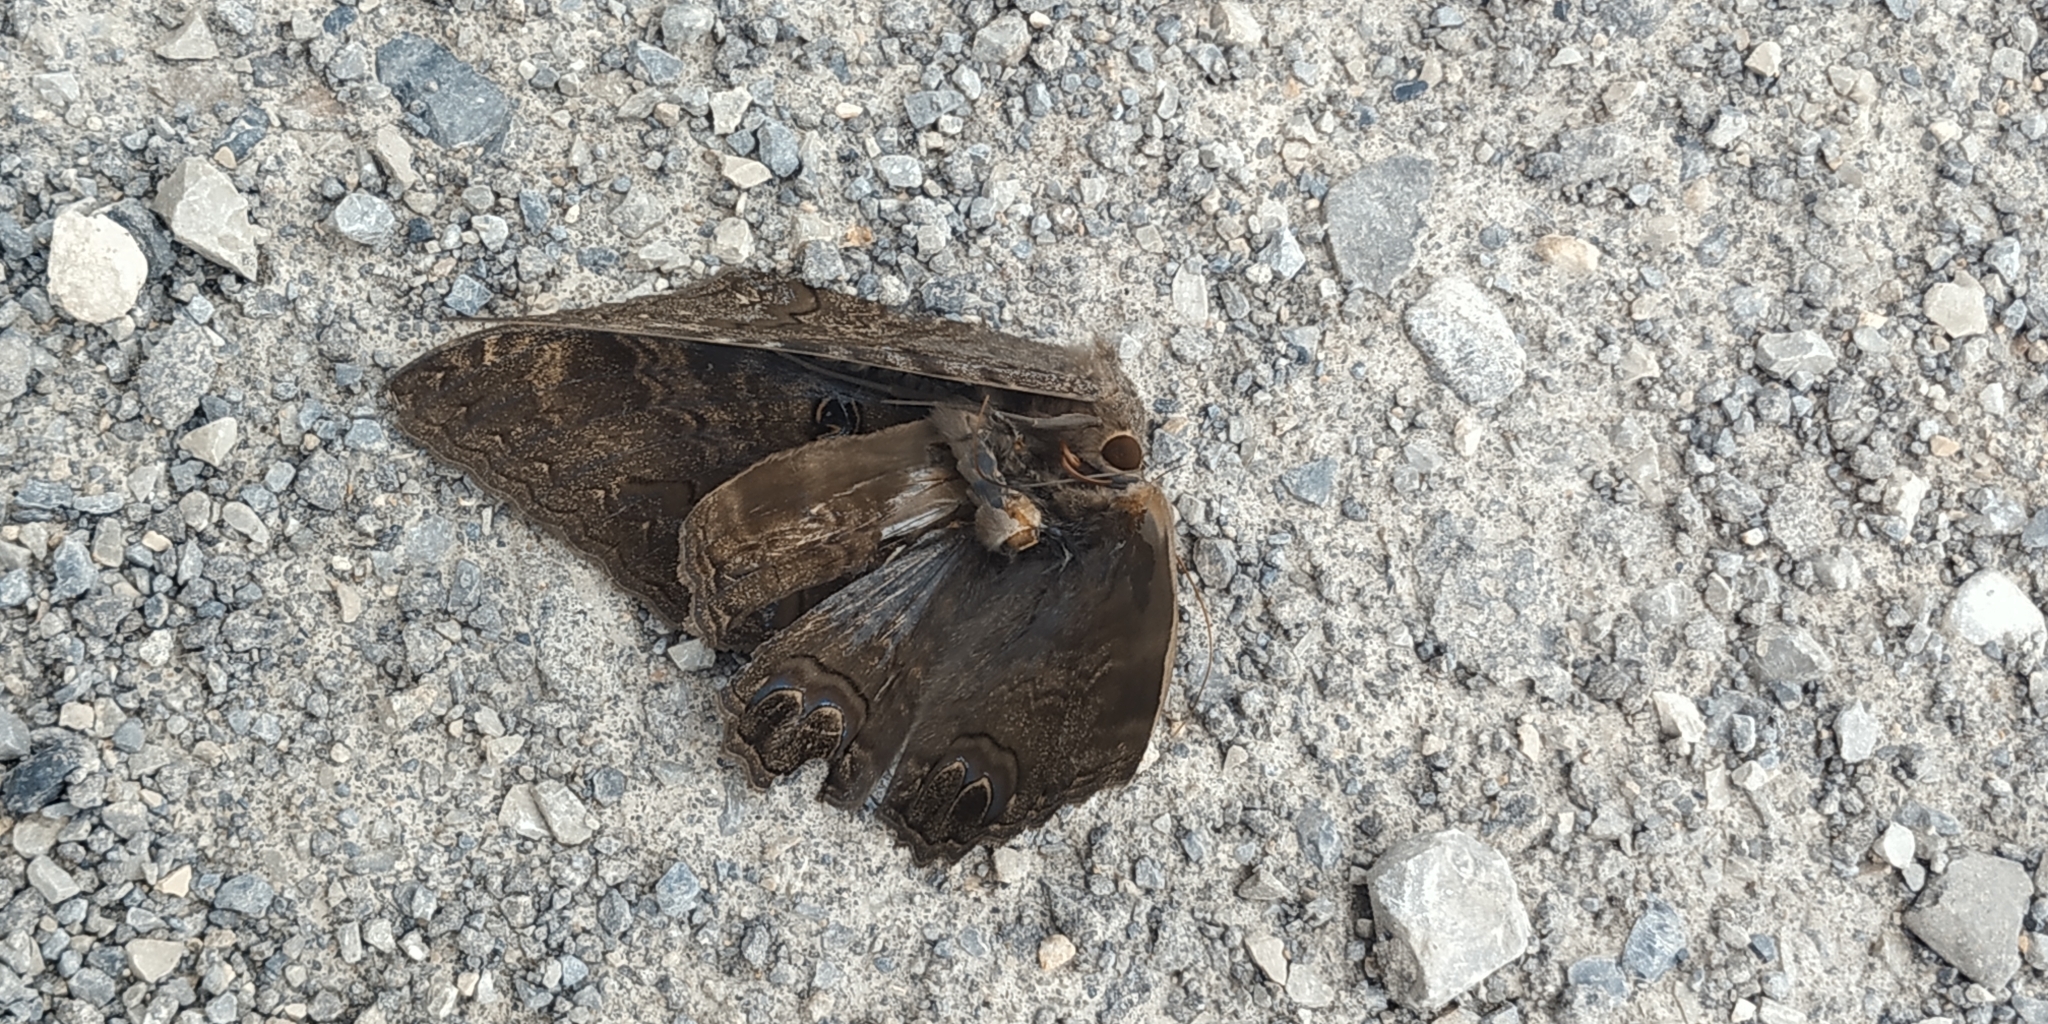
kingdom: Animalia
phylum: Arthropoda
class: Insecta
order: Lepidoptera
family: Erebidae
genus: Ascalapha
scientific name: Ascalapha odorata
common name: Black witch
